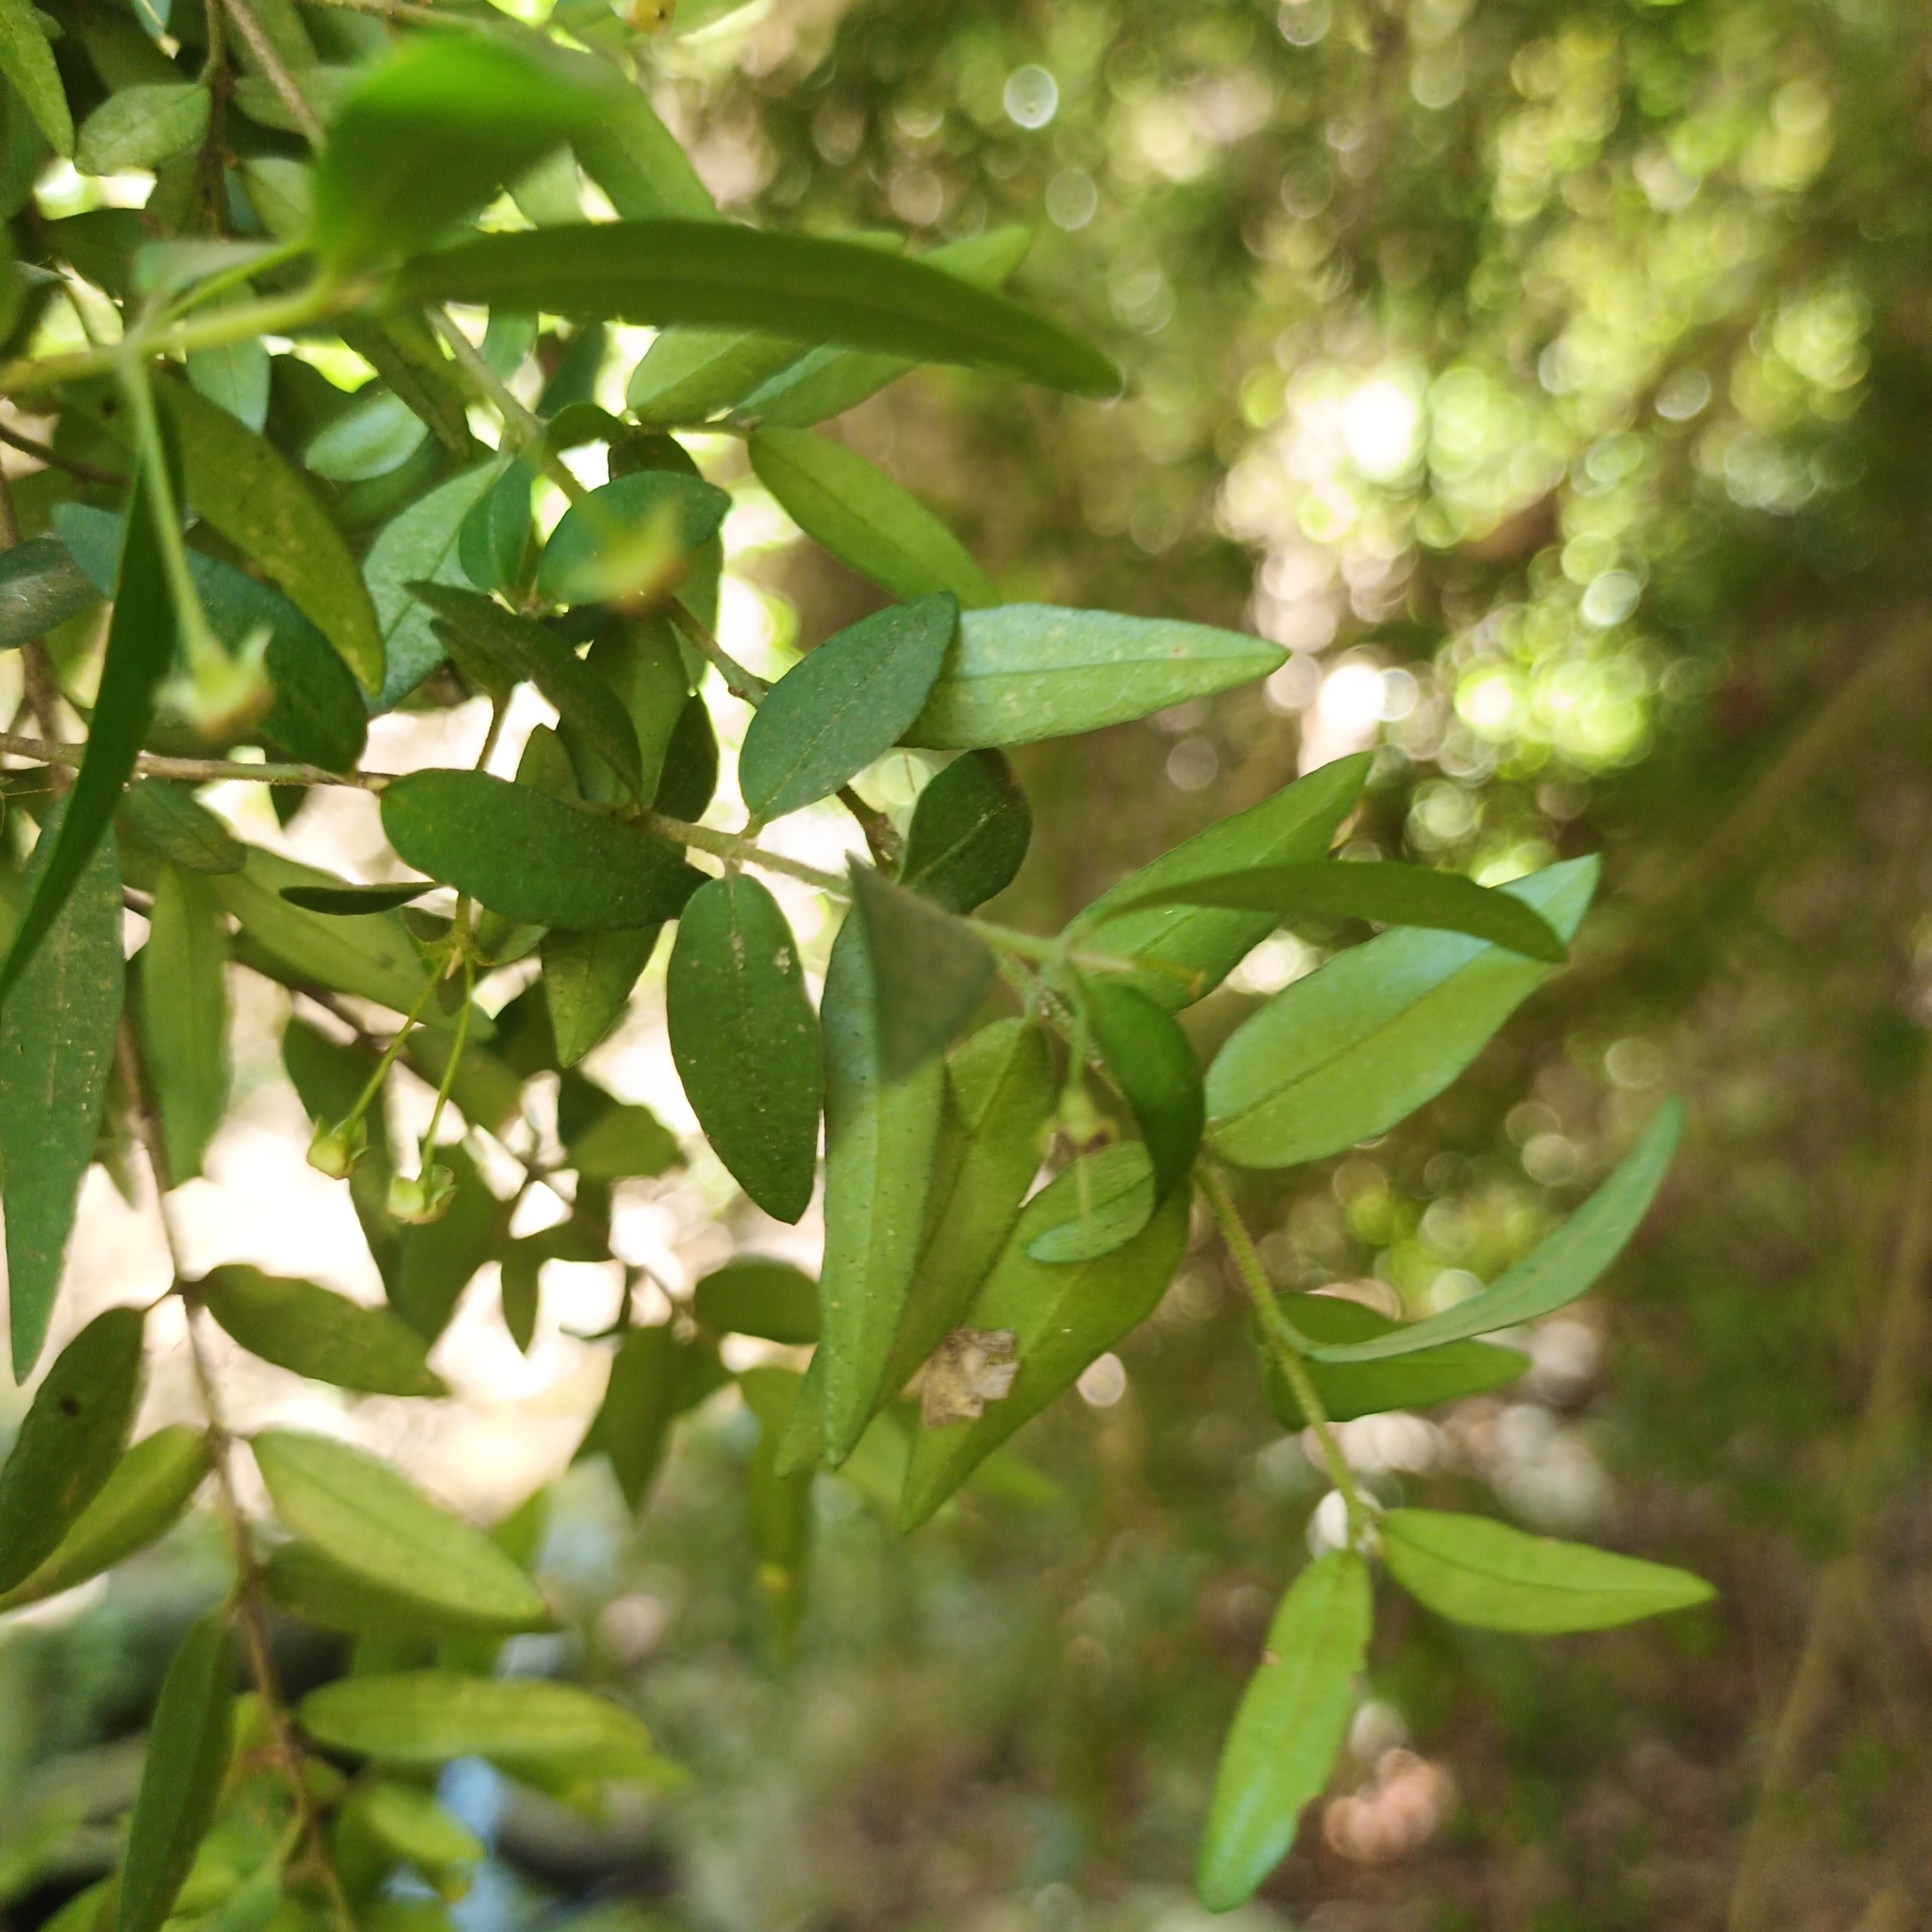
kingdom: Plantae
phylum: Tracheophyta
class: Magnoliopsida
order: Myrtales
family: Myrtaceae
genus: Myrceugenia
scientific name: Myrceugenia parvifolia
